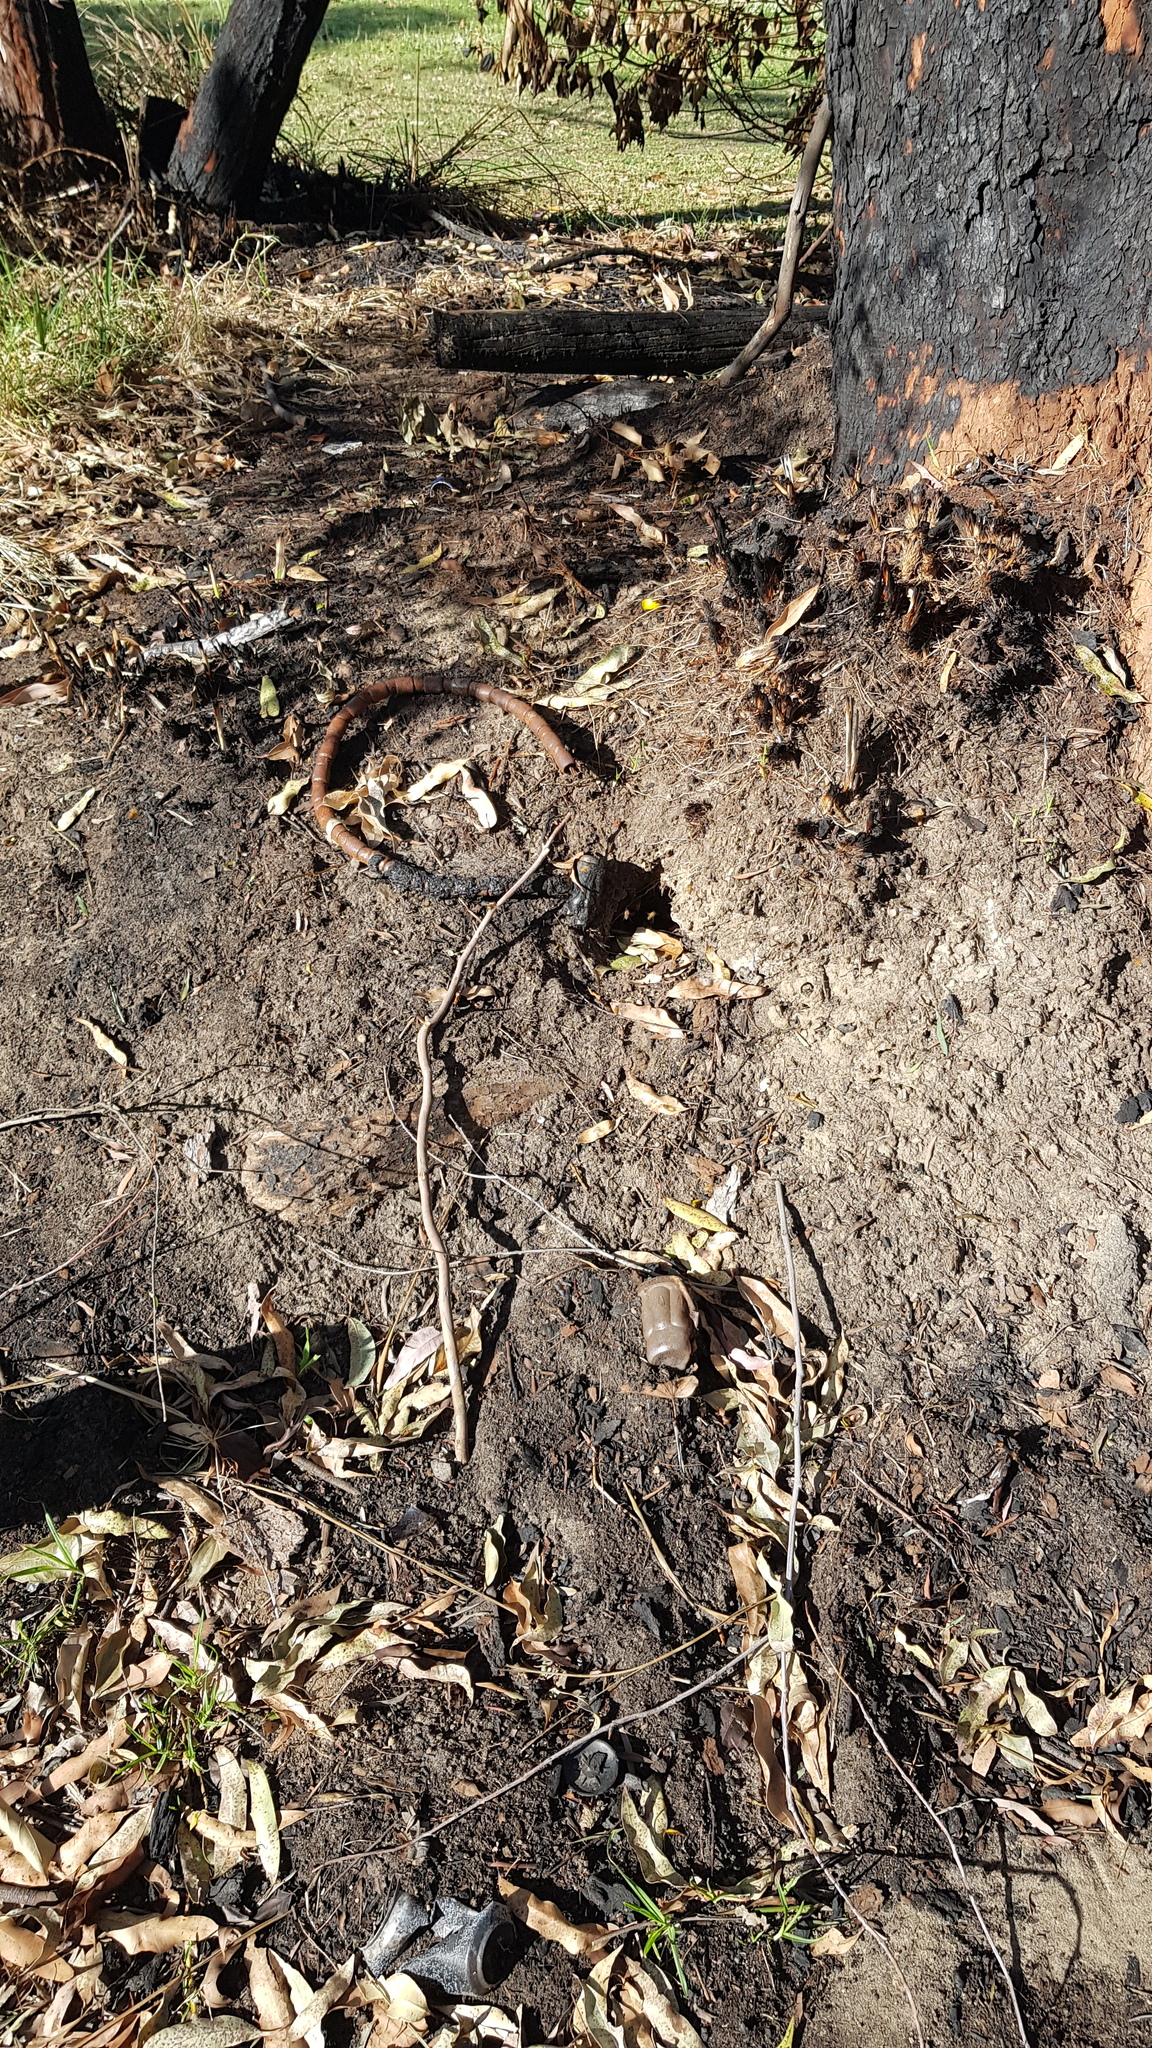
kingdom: Animalia
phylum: Arthropoda
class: Insecta
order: Hymenoptera
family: Apidae
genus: Apis
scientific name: Apis mellifera
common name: Honey bee
